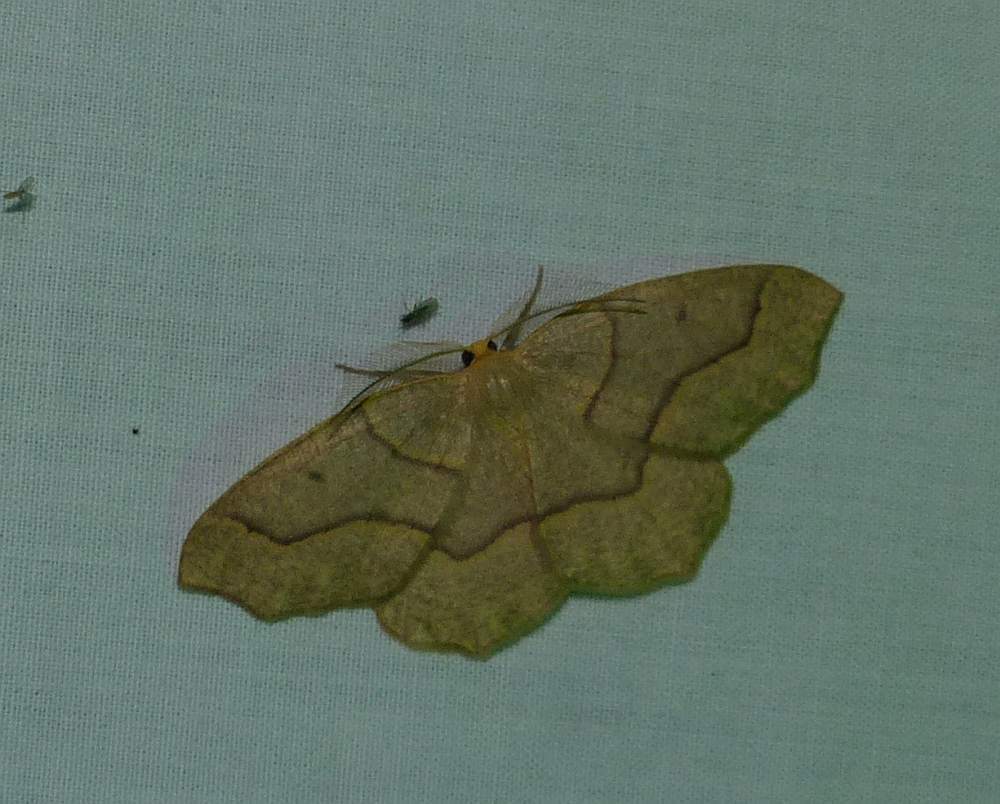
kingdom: Animalia
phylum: Arthropoda
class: Insecta
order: Lepidoptera
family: Geometridae
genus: Lambdina
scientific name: Lambdina fiscellaria
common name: Hemlock looper
